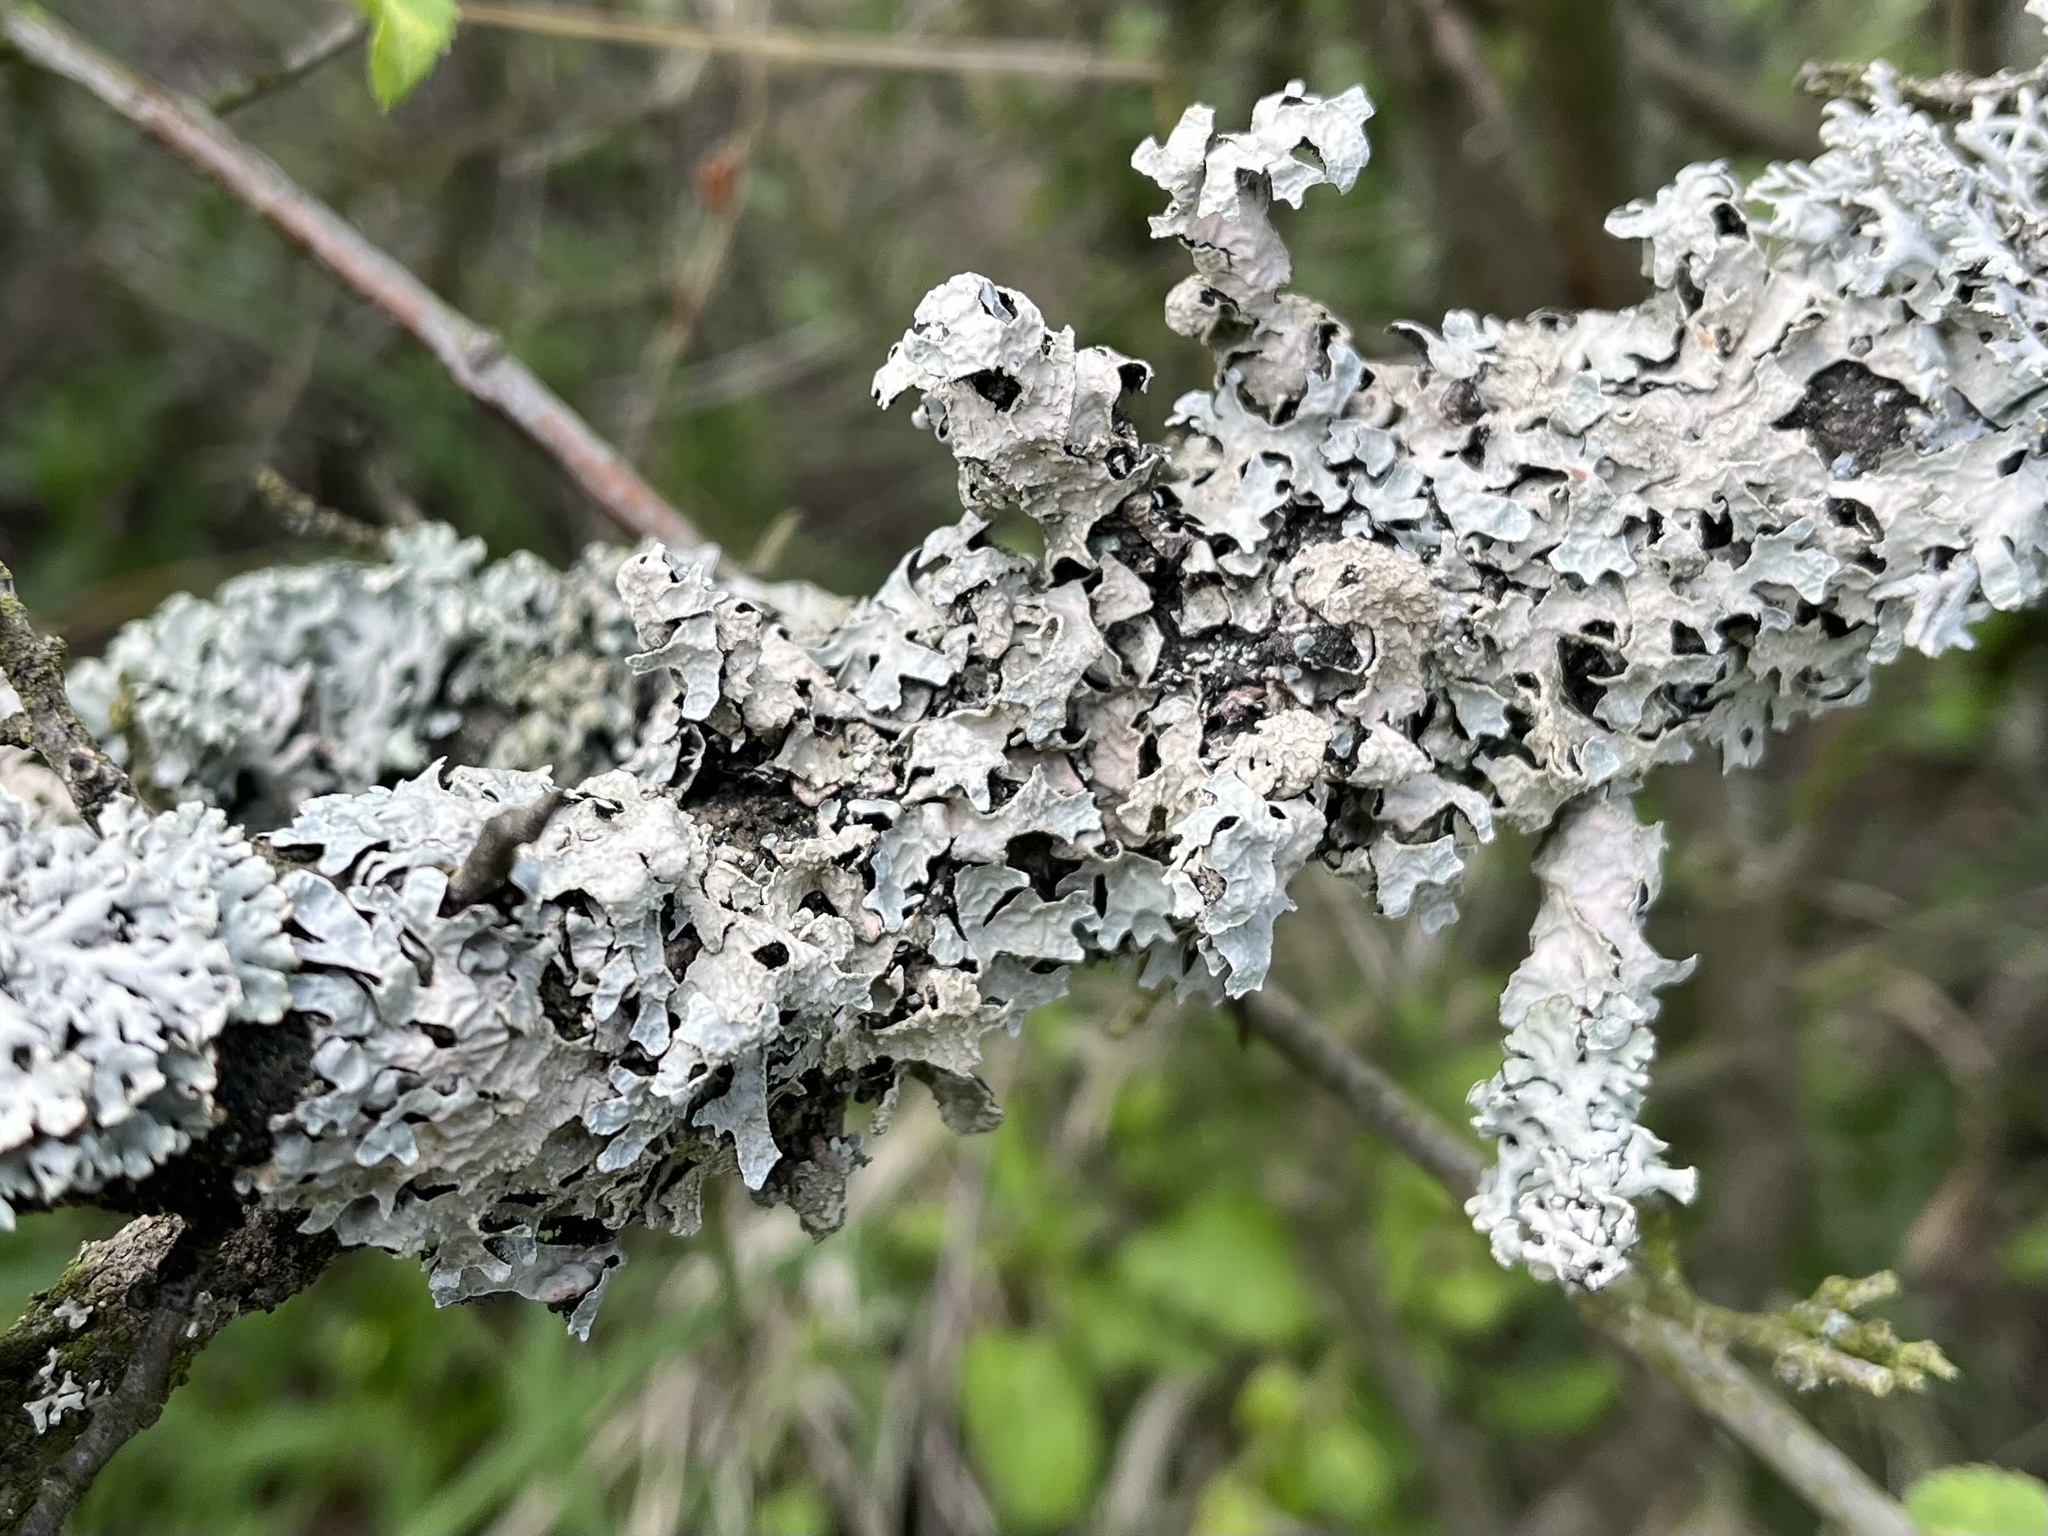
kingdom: Fungi
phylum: Ascomycota
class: Lecanoromycetes
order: Lecanorales
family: Parmeliaceae
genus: Parmelia
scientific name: Parmelia sulcata
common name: Netted shield lichen
